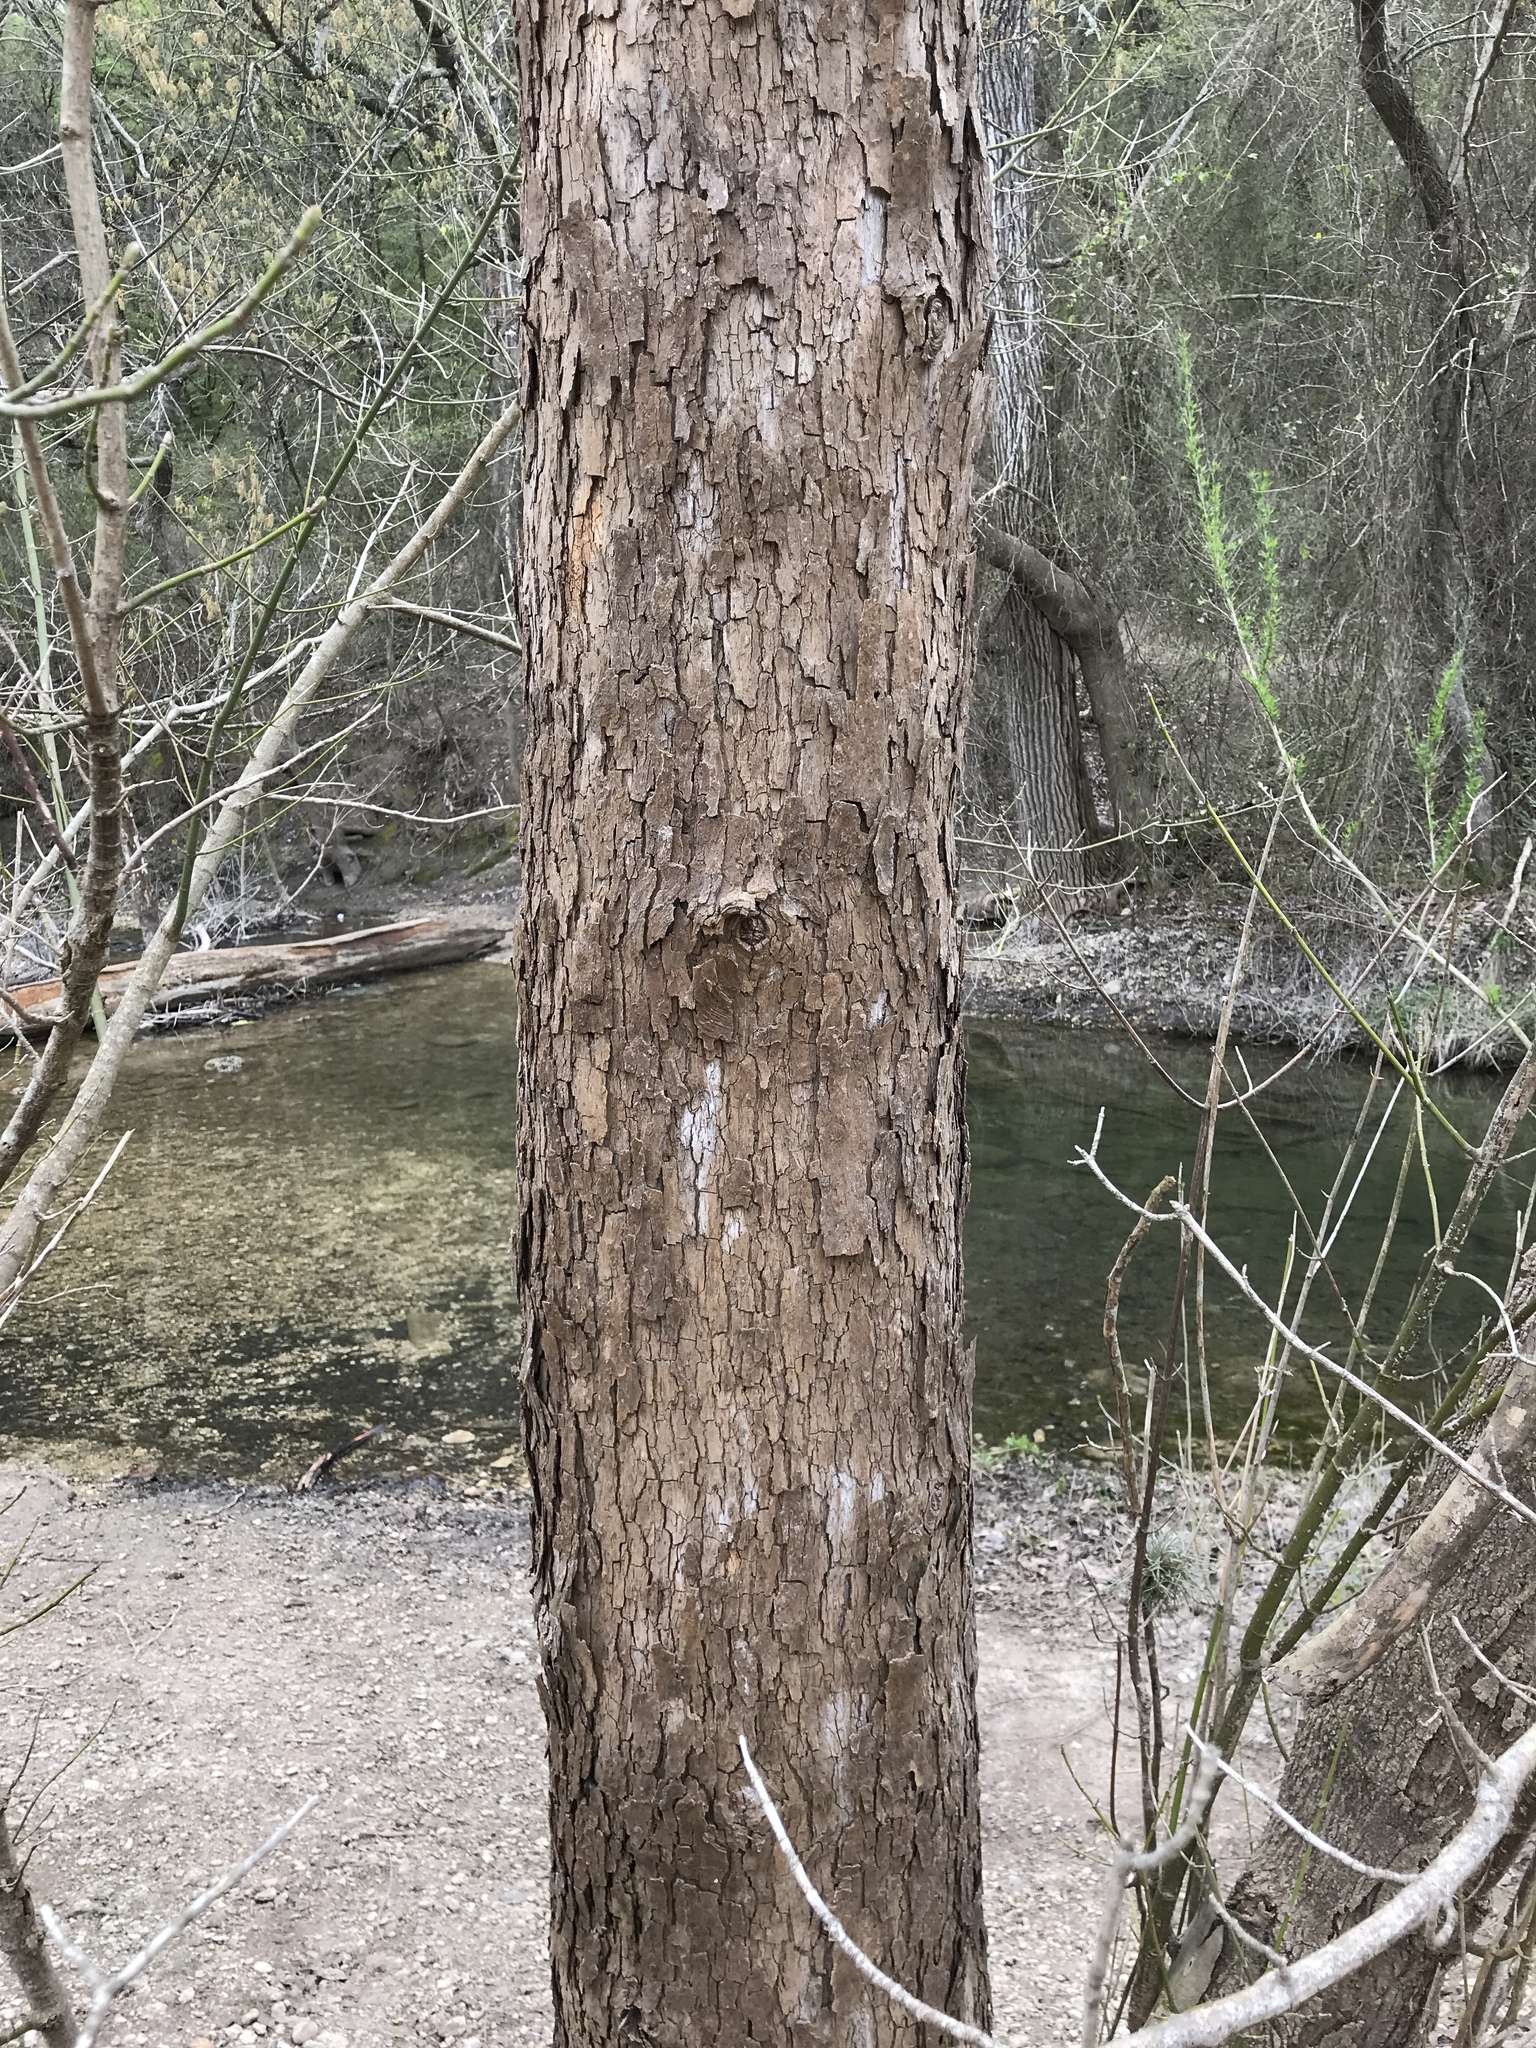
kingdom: Plantae
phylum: Tracheophyta
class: Magnoliopsida
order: Proteales
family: Platanaceae
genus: Platanus
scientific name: Platanus occidentalis
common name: American sycamore
